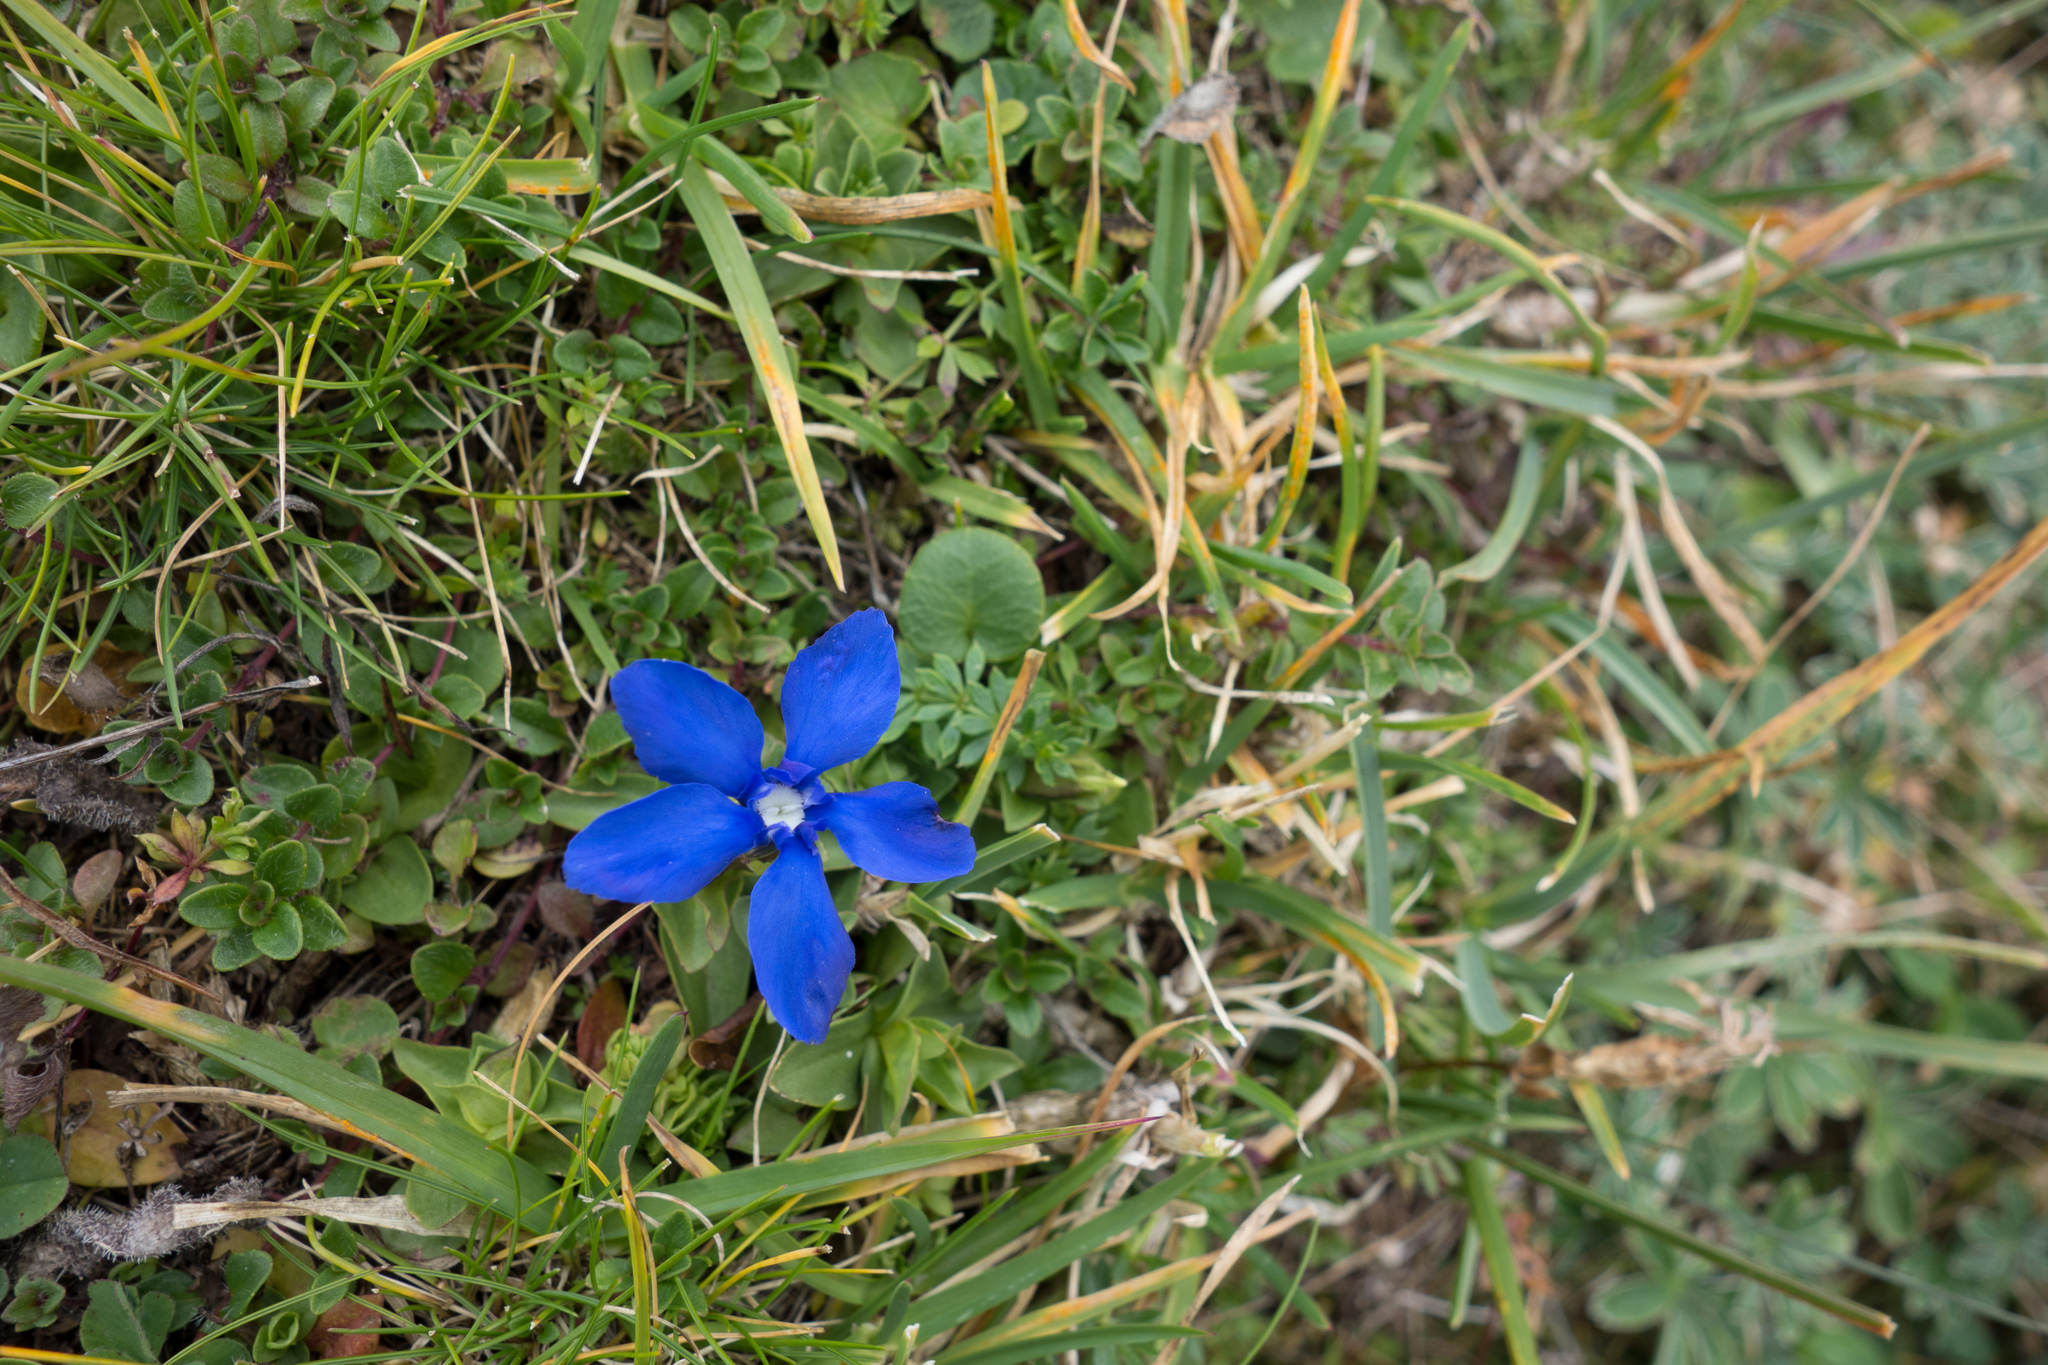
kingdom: Plantae
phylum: Tracheophyta
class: Magnoliopsida
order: Gentianales
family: Gentianaceae
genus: Gentiana
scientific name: Gentiana verna
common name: Spring gentian
